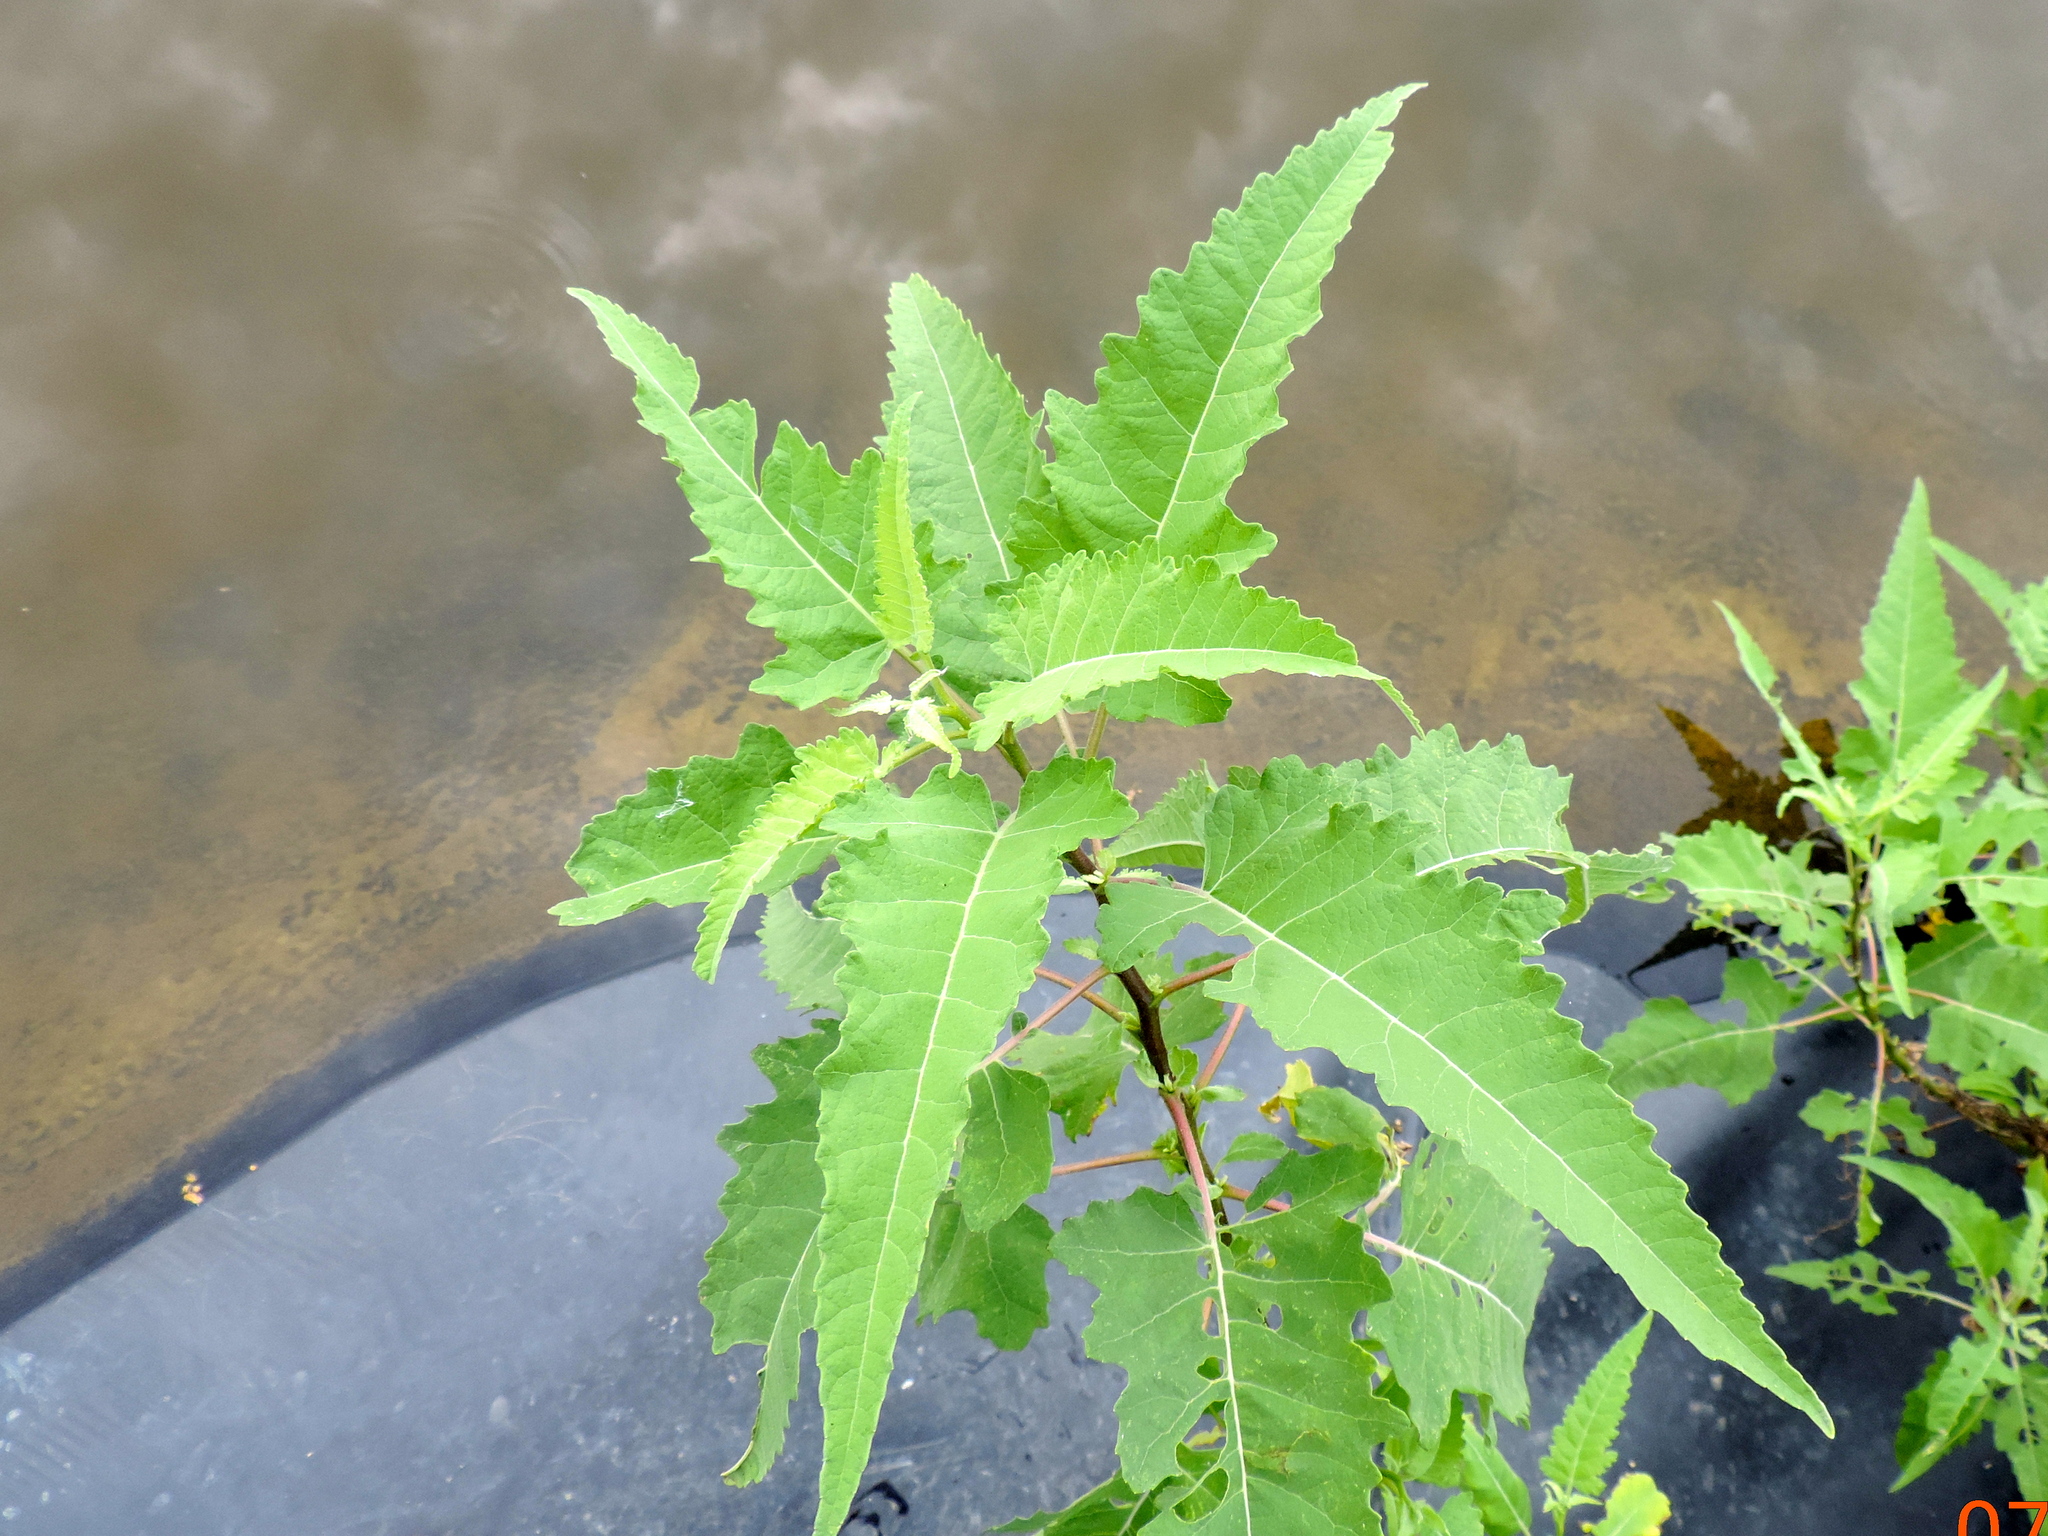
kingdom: Plantae
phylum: Tracheophyta
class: Magnoliopsida
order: Asterales
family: Asteraceae
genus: Ambrosia
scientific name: Ambrosia ambrosioides
